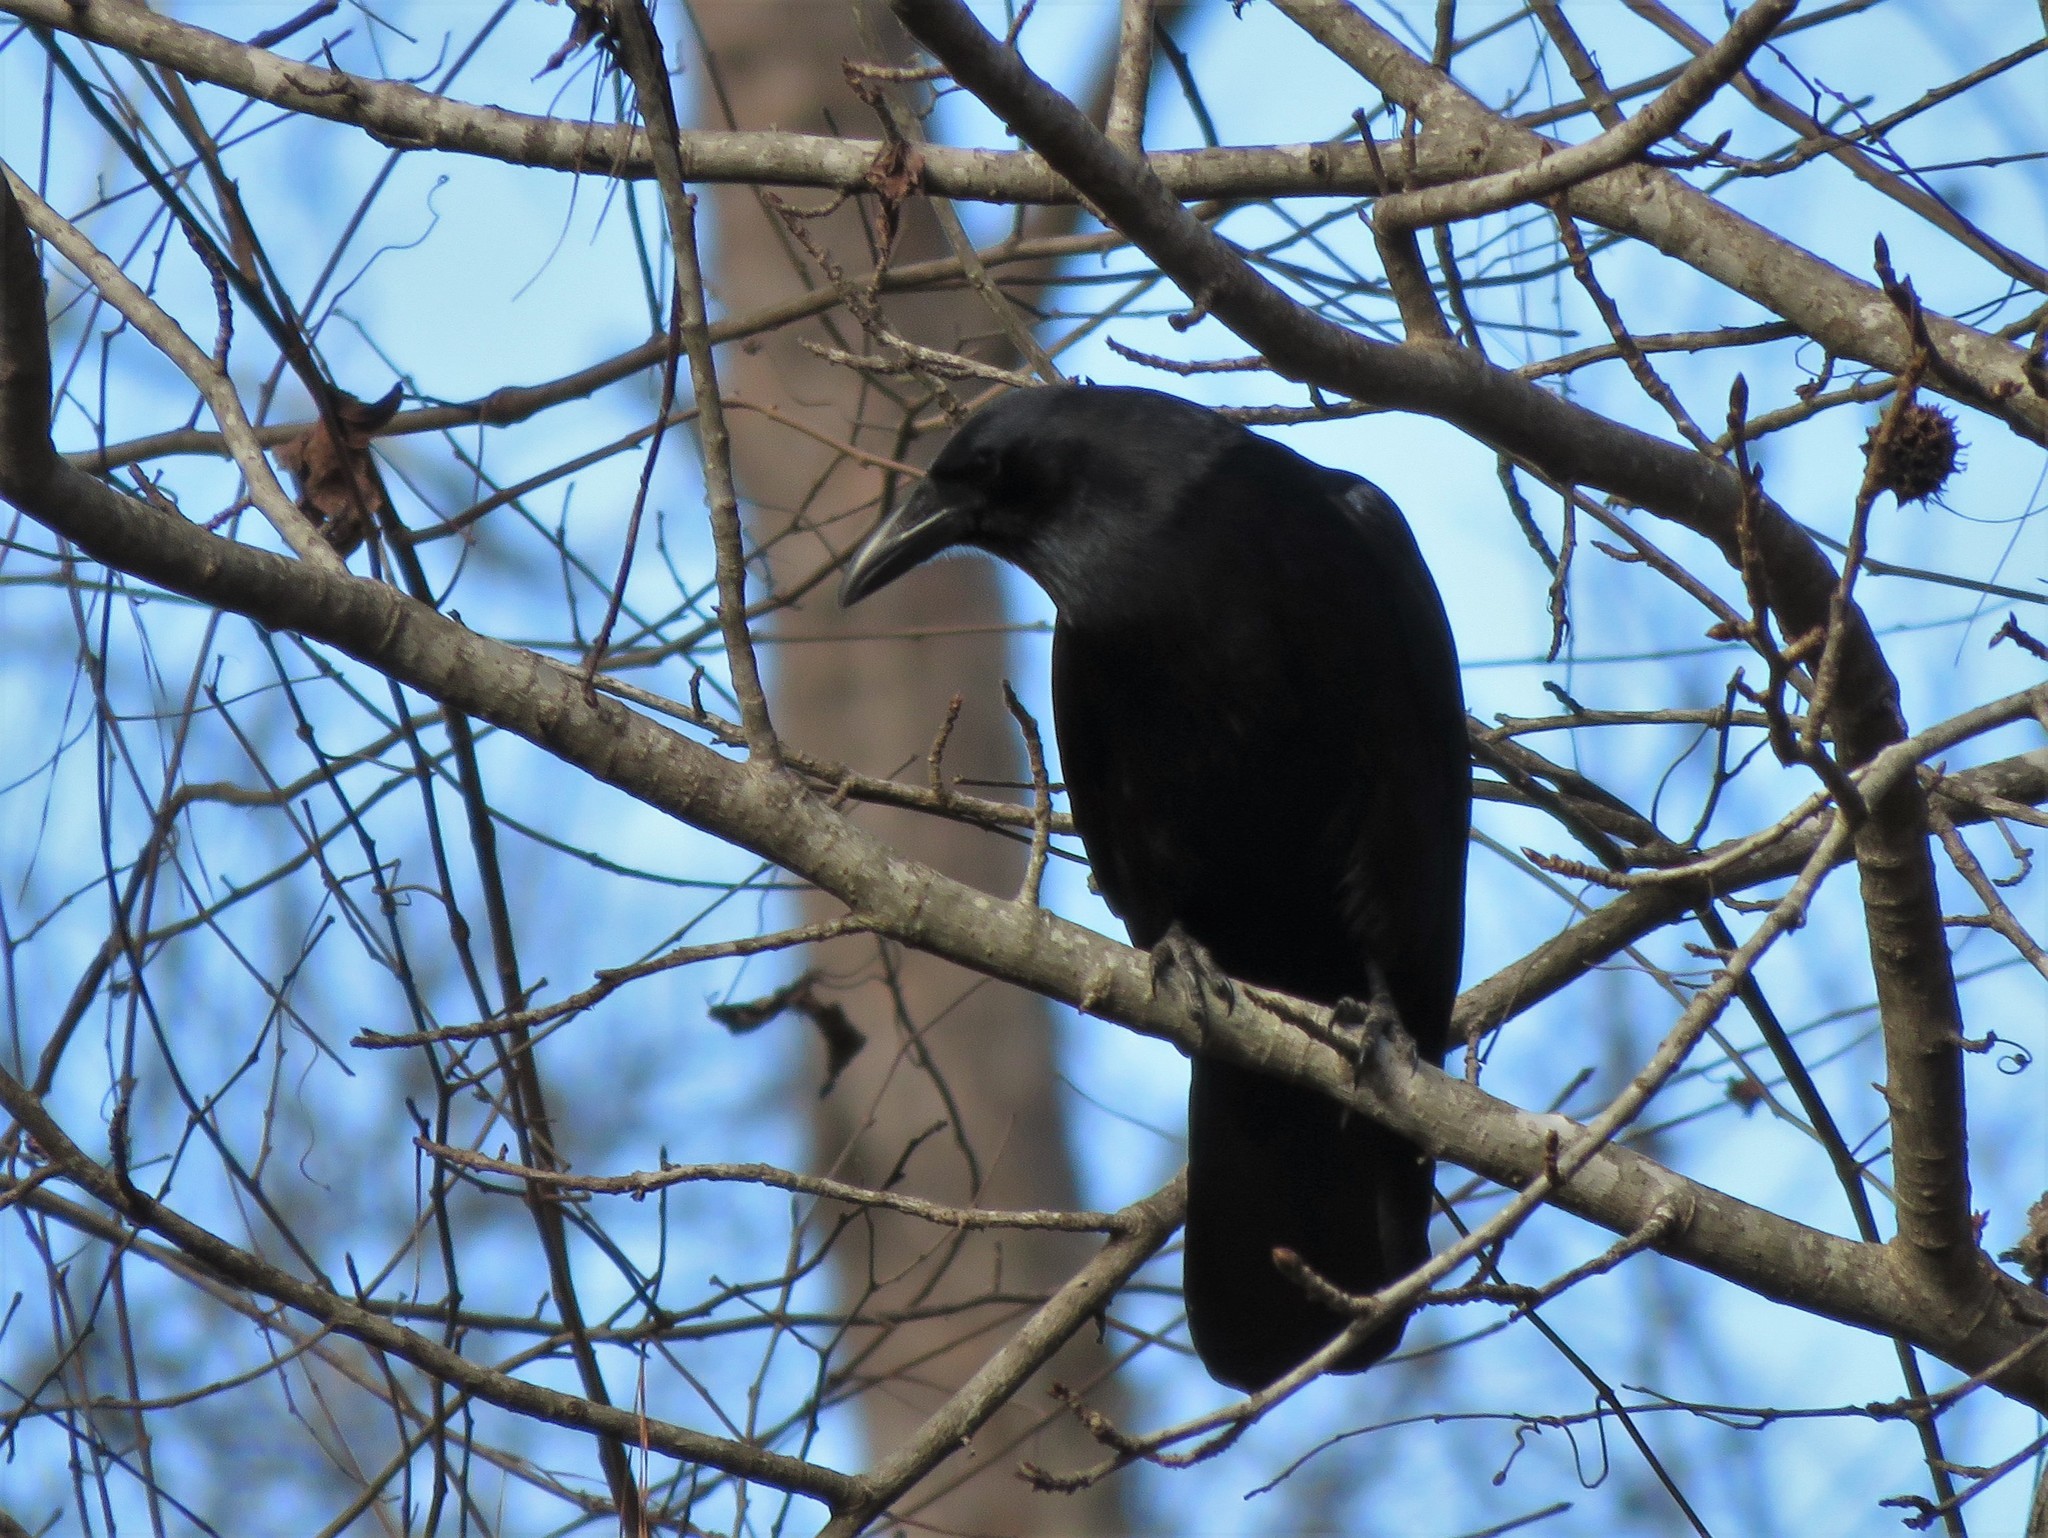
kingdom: Animalia
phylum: Chordata
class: Aves
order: Passeriformes
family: Corvidae
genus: Corvus
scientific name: Corvus brachyrhynchos
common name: American crow
